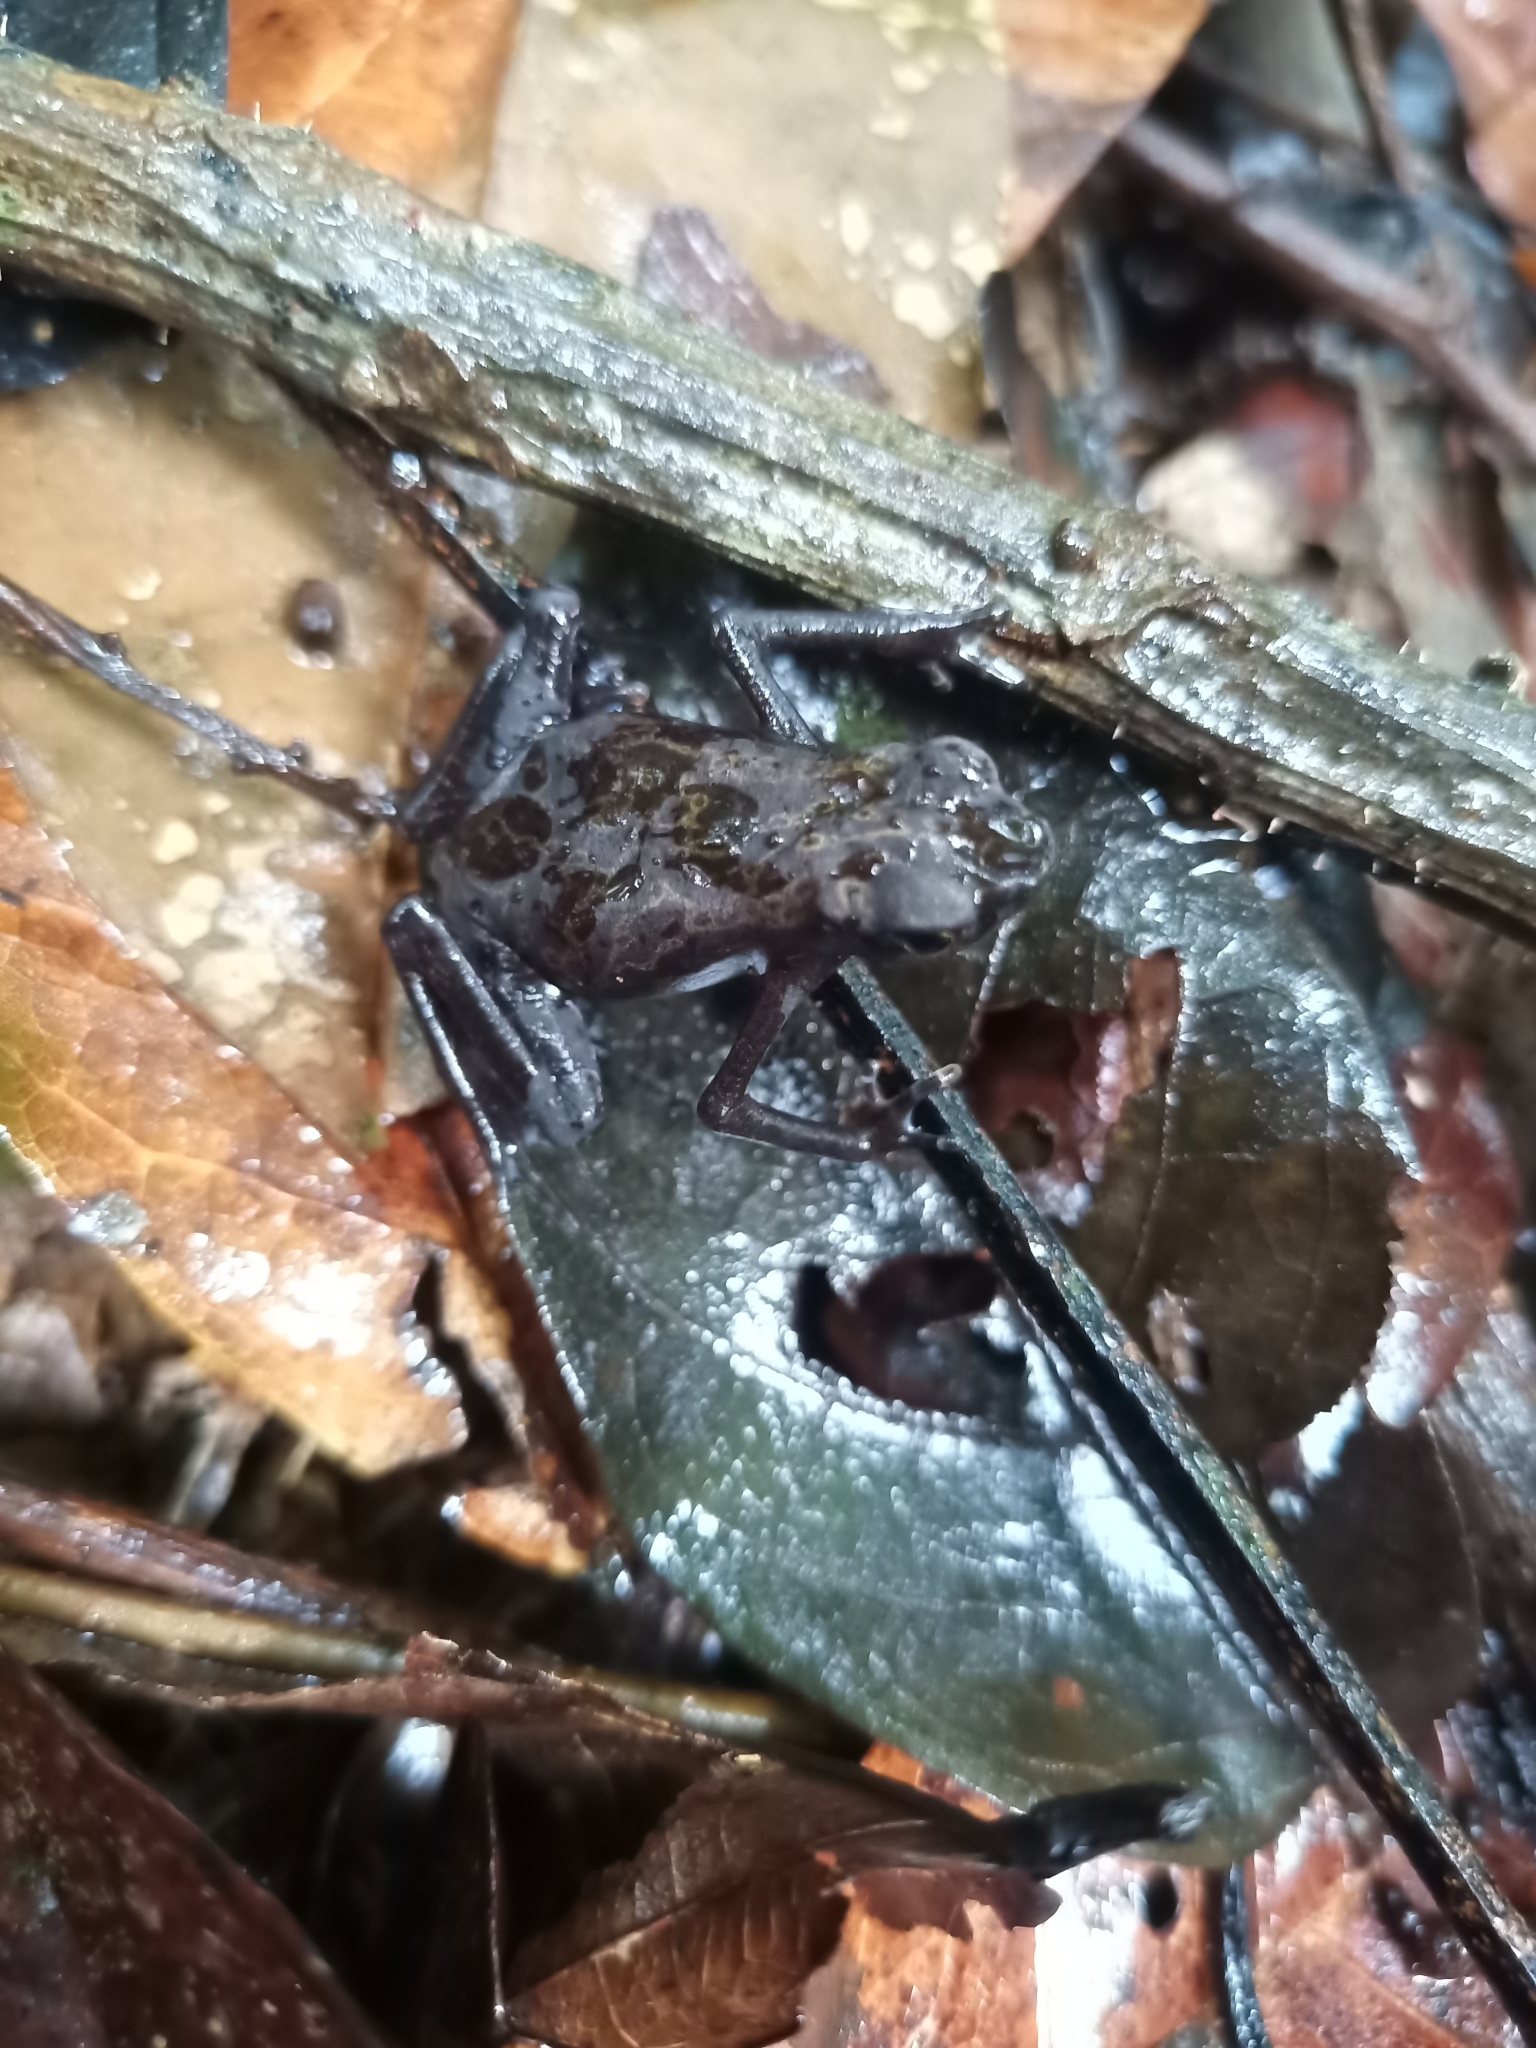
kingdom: Animalia
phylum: Chordata
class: Amphibia
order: Anura
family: Bufonidae
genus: Atelopus
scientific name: Atelopus flavescens
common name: Cayenne stubfoot toad
